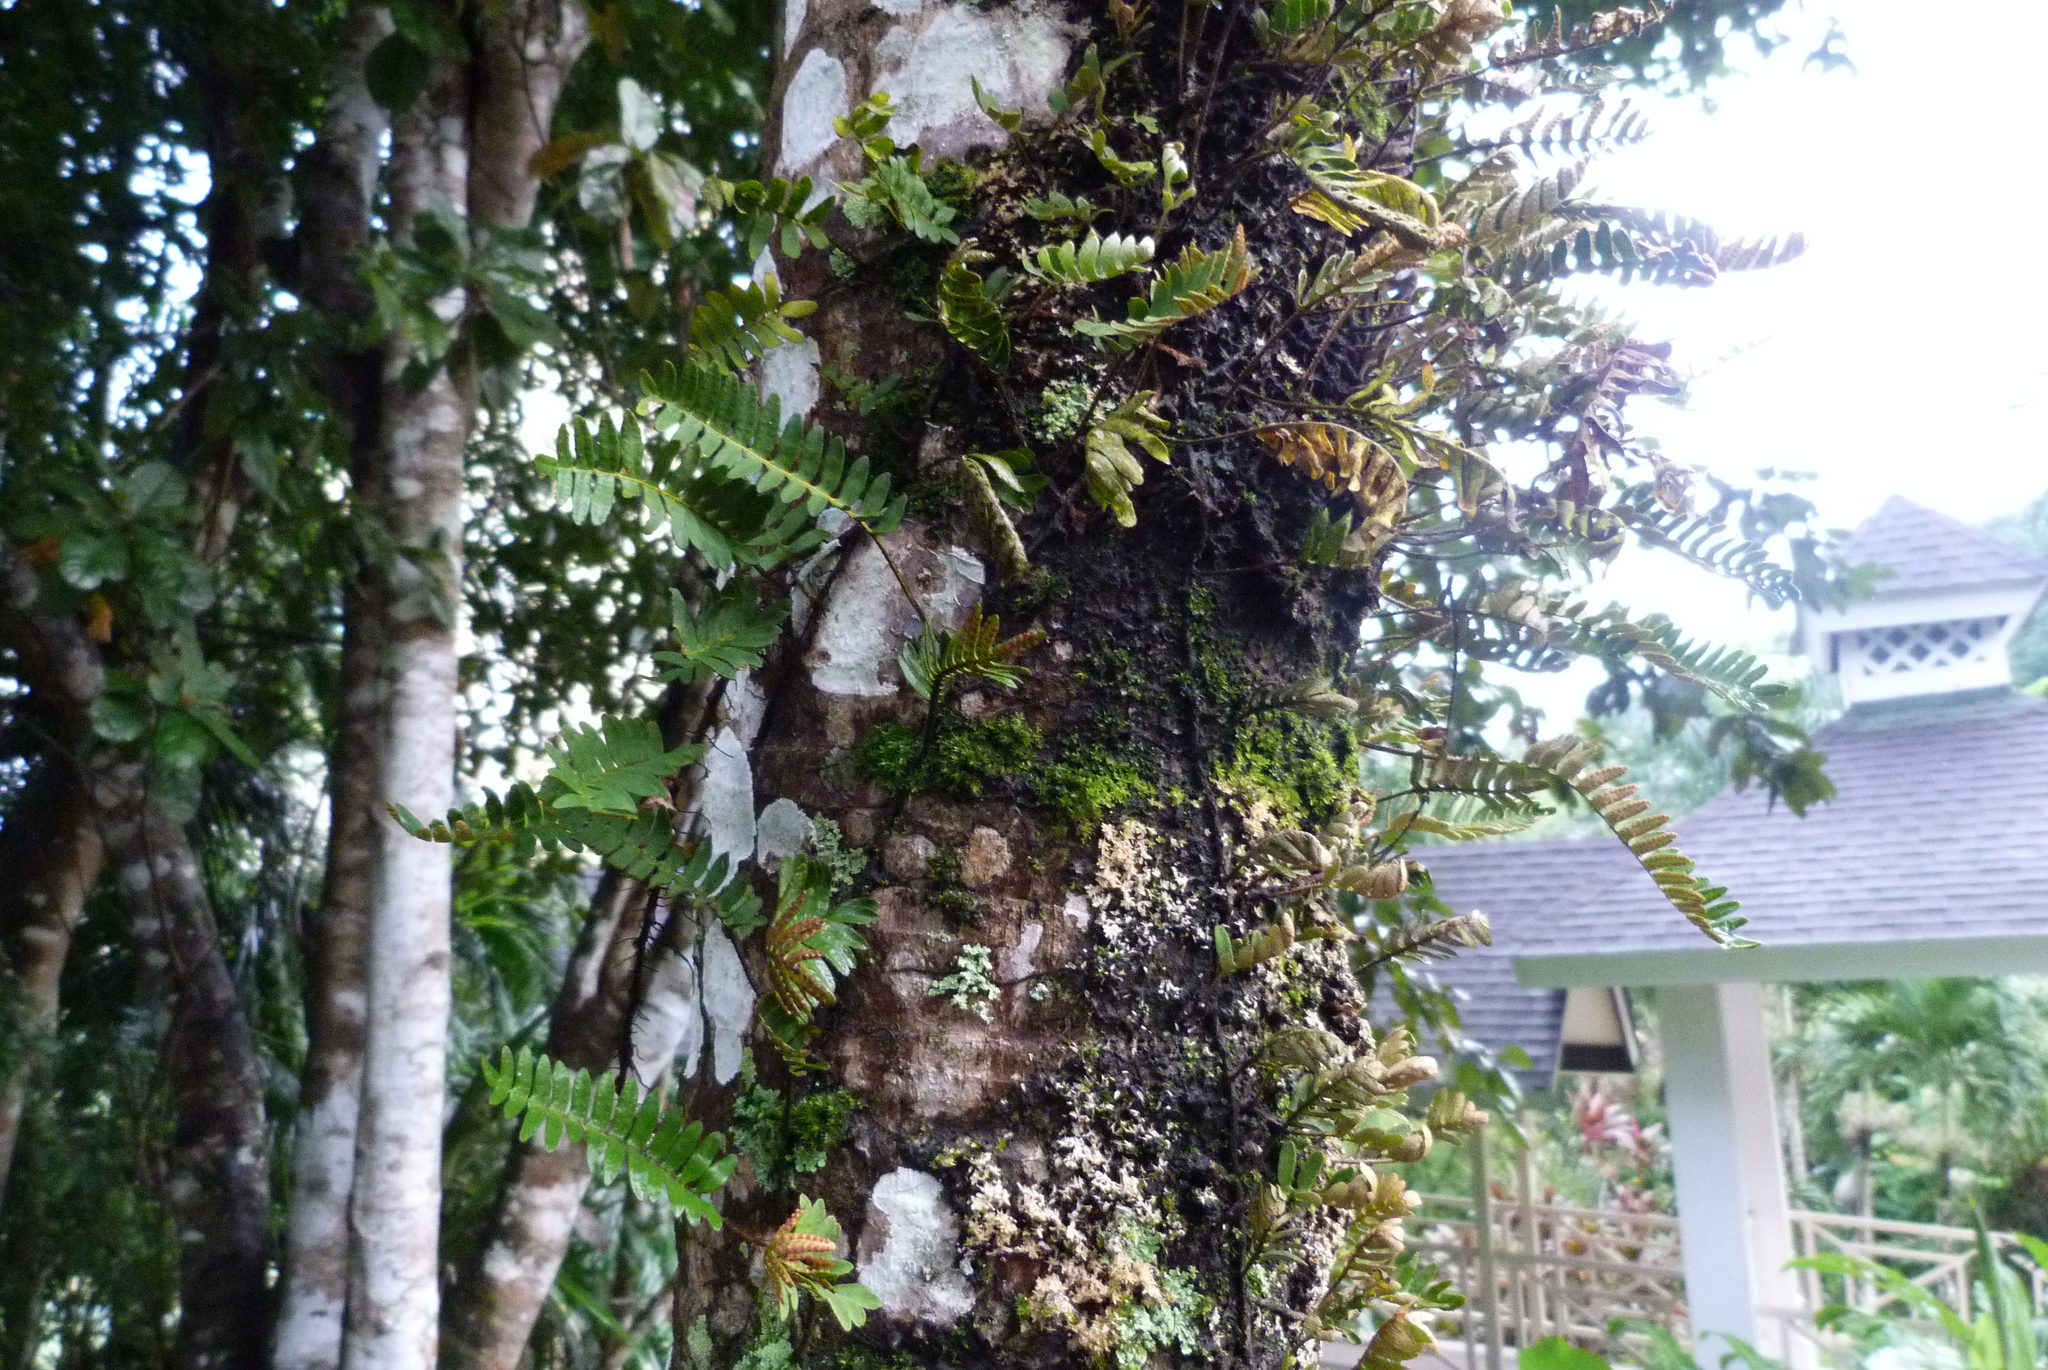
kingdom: Plantae
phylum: Tracheophyta
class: Polypodiopsida
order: Polypodiales
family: Polypodiaceae
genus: Pleopeltis
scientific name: Pleopeltis polypodioides
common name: Resurrection fern
